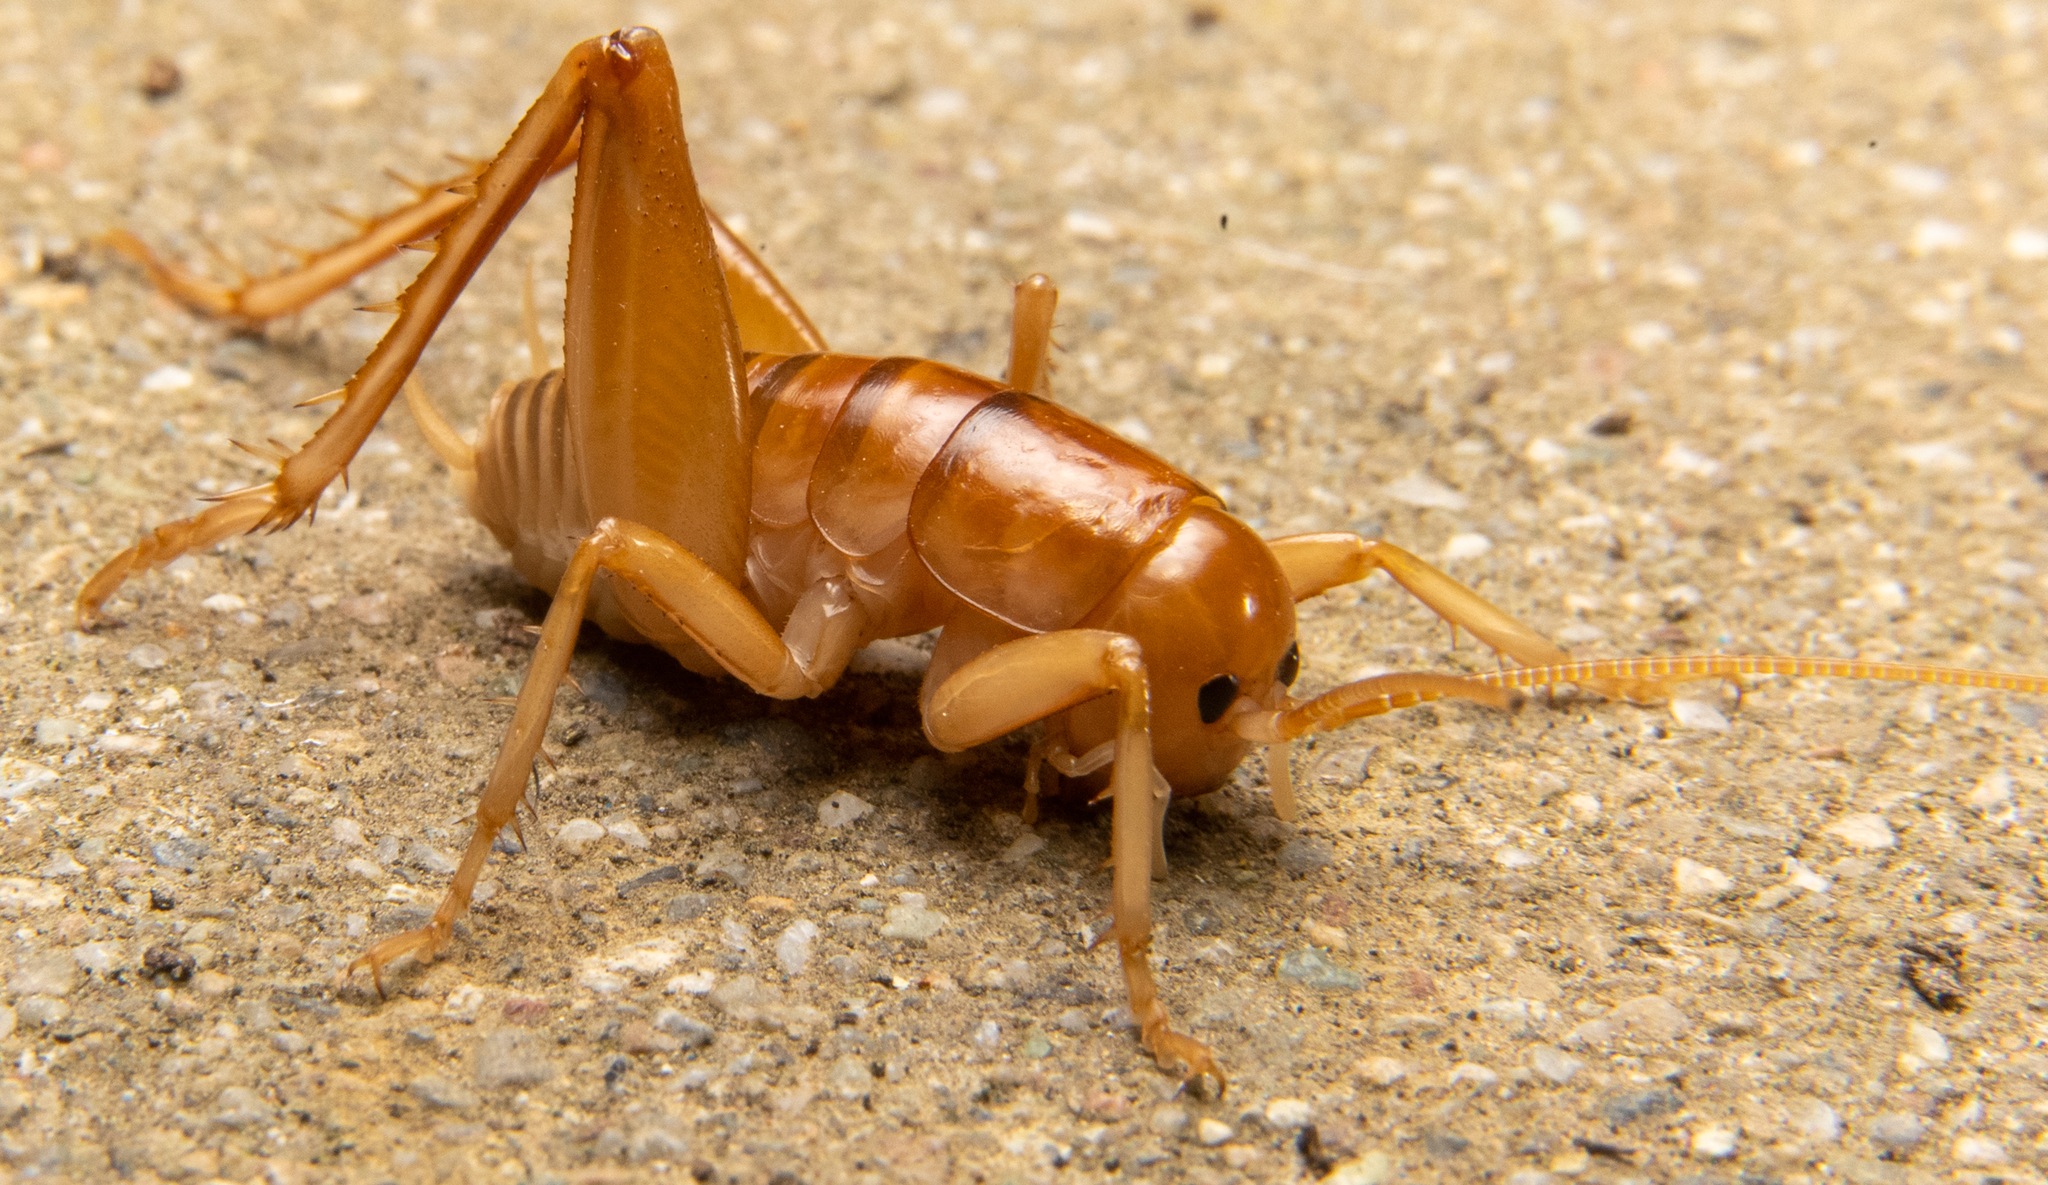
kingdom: Animalia
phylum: Arthropoda
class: Insecta
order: Orthoptera
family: Rhaphidophoridae
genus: Ceuthophilus
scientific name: Ceuthophilus californianus
